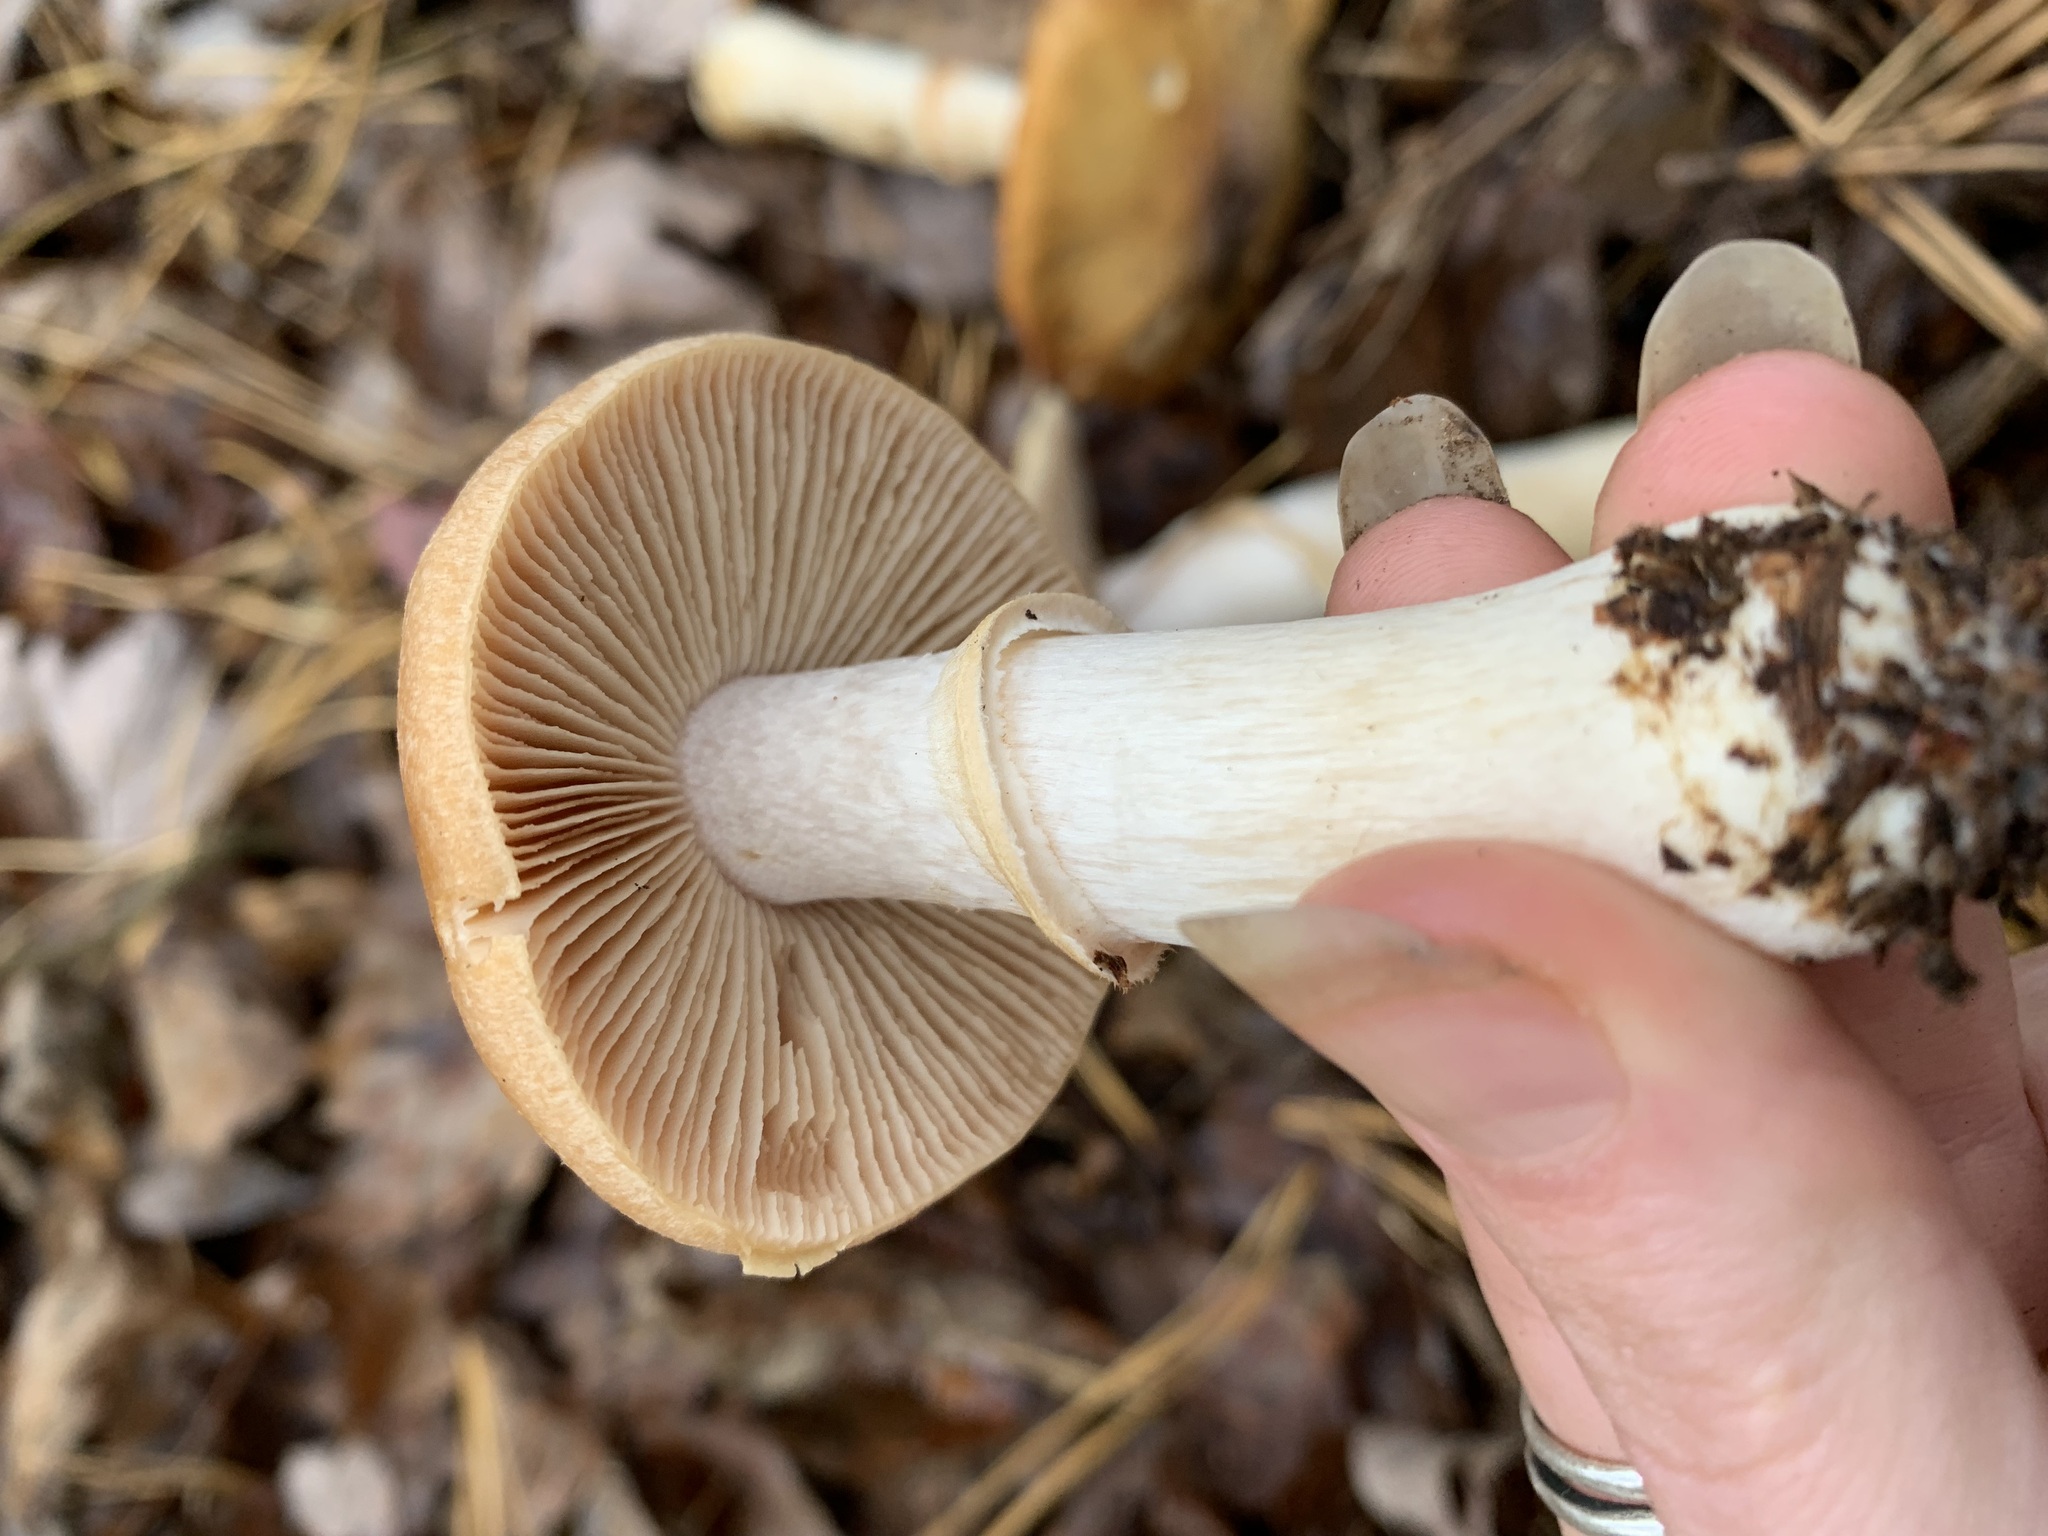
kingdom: Fungi
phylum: Basidiomycota
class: Agaricomycetes
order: Agaricales
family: Cortinariaceae
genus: Cortinarius
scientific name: Cortinarius caperatus
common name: The gypsy
